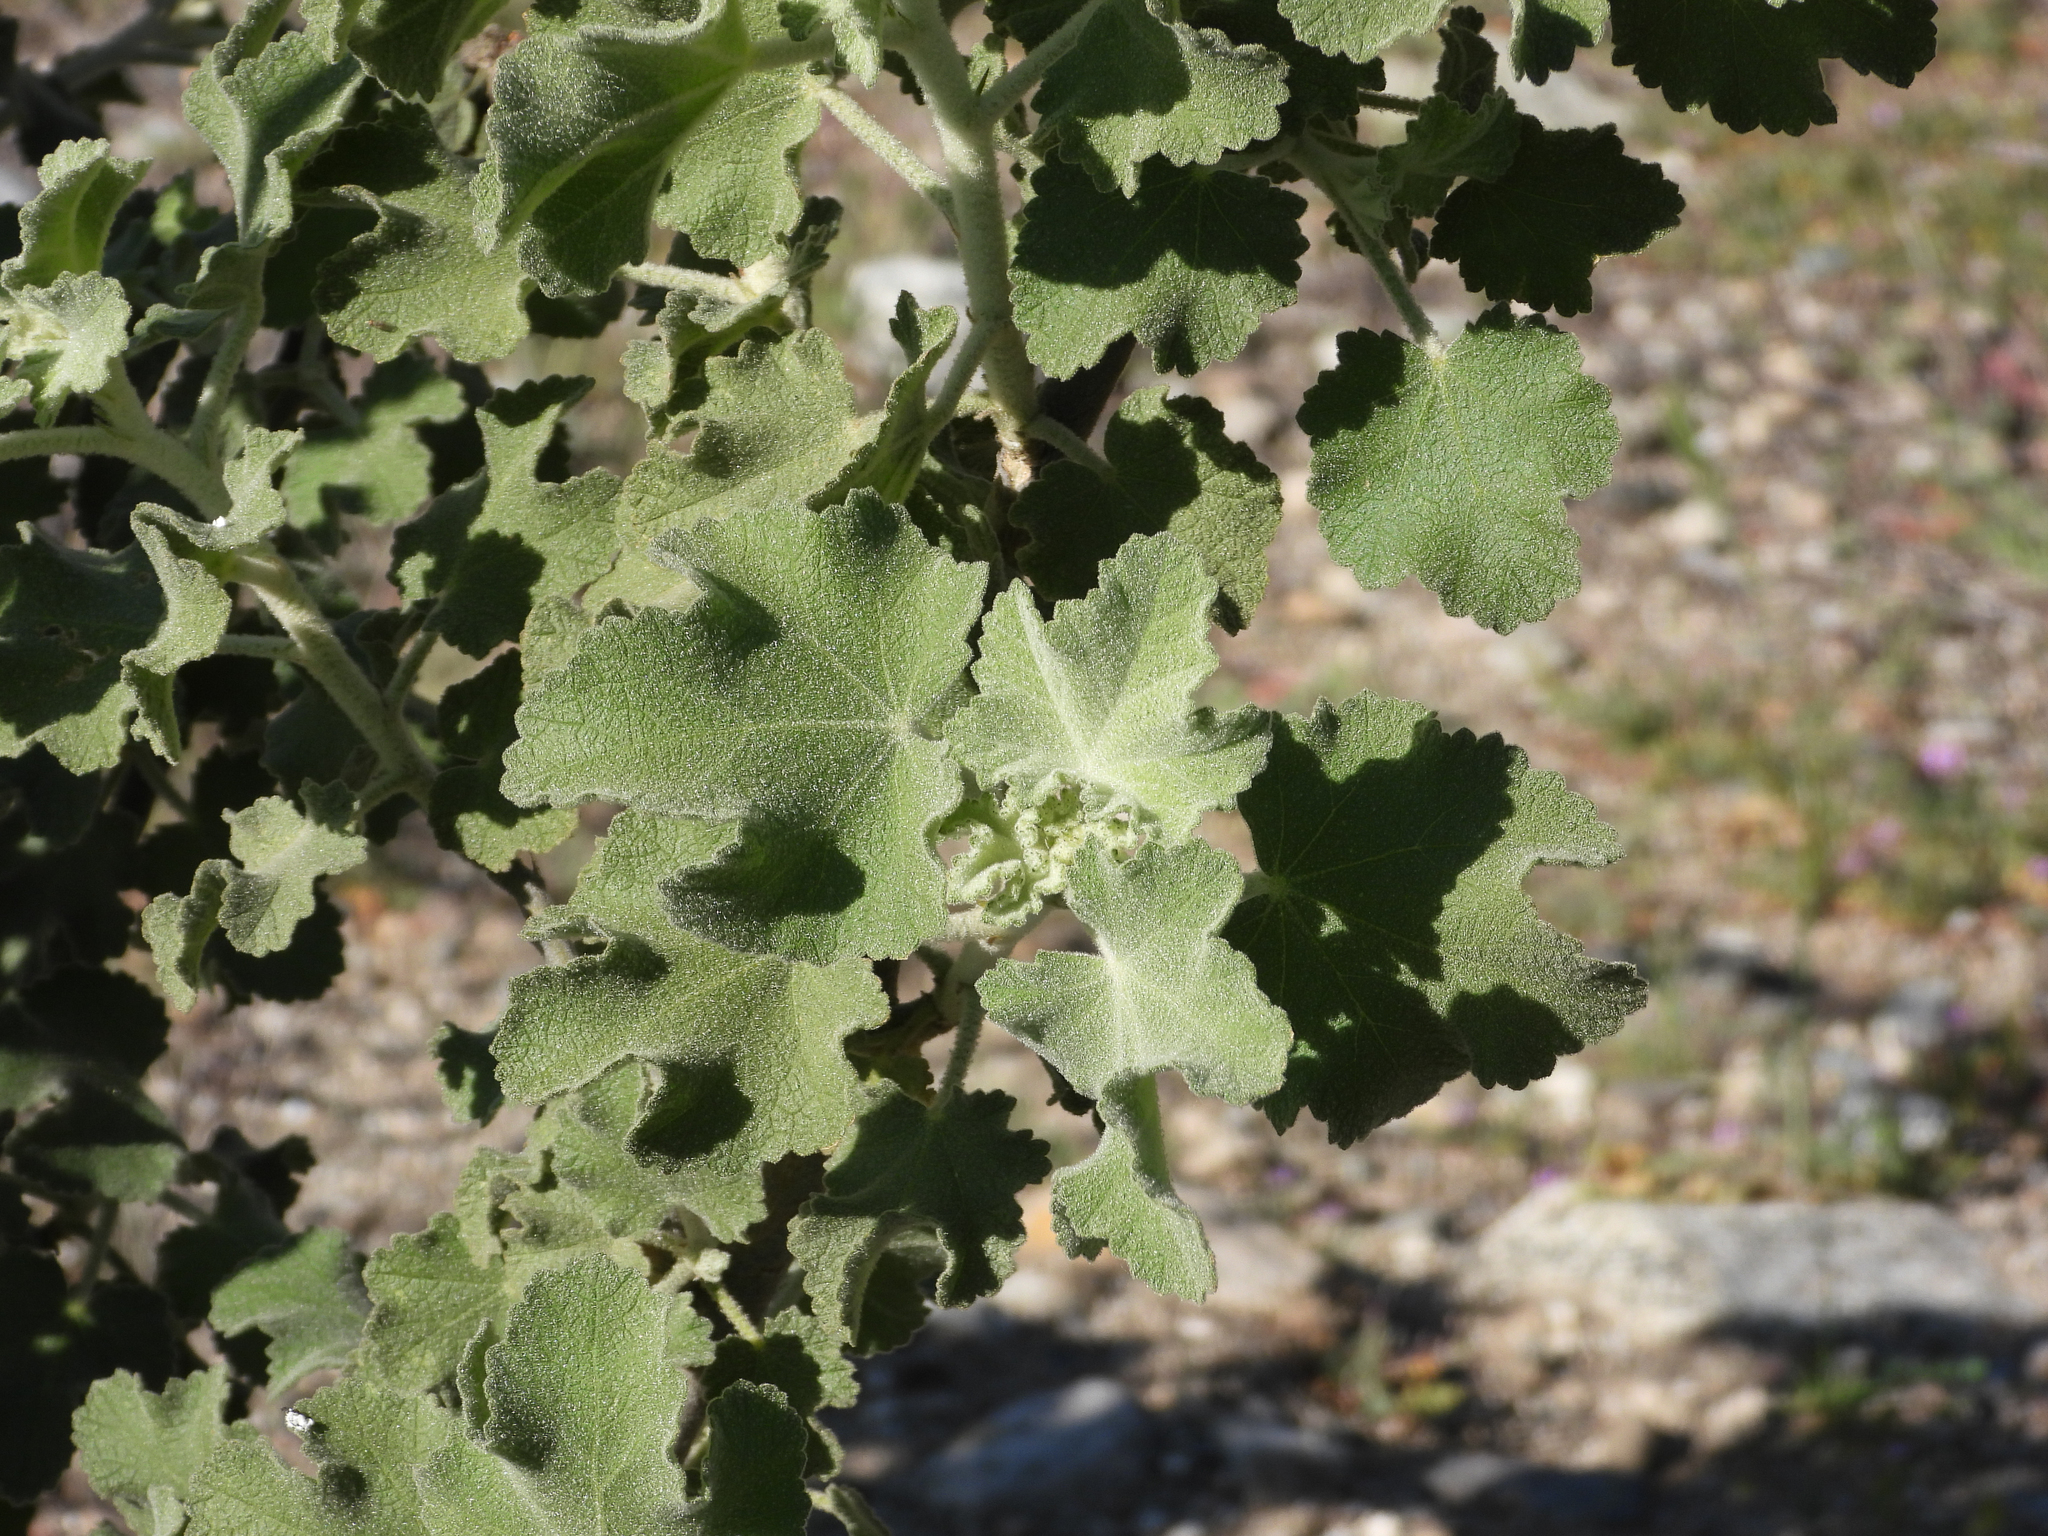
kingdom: Plantae
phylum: Tracheophyta
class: Magnoliopsida
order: Malvales
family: Malvaceae
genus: Malacothamnus
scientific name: Malacothamnus davidsonii
